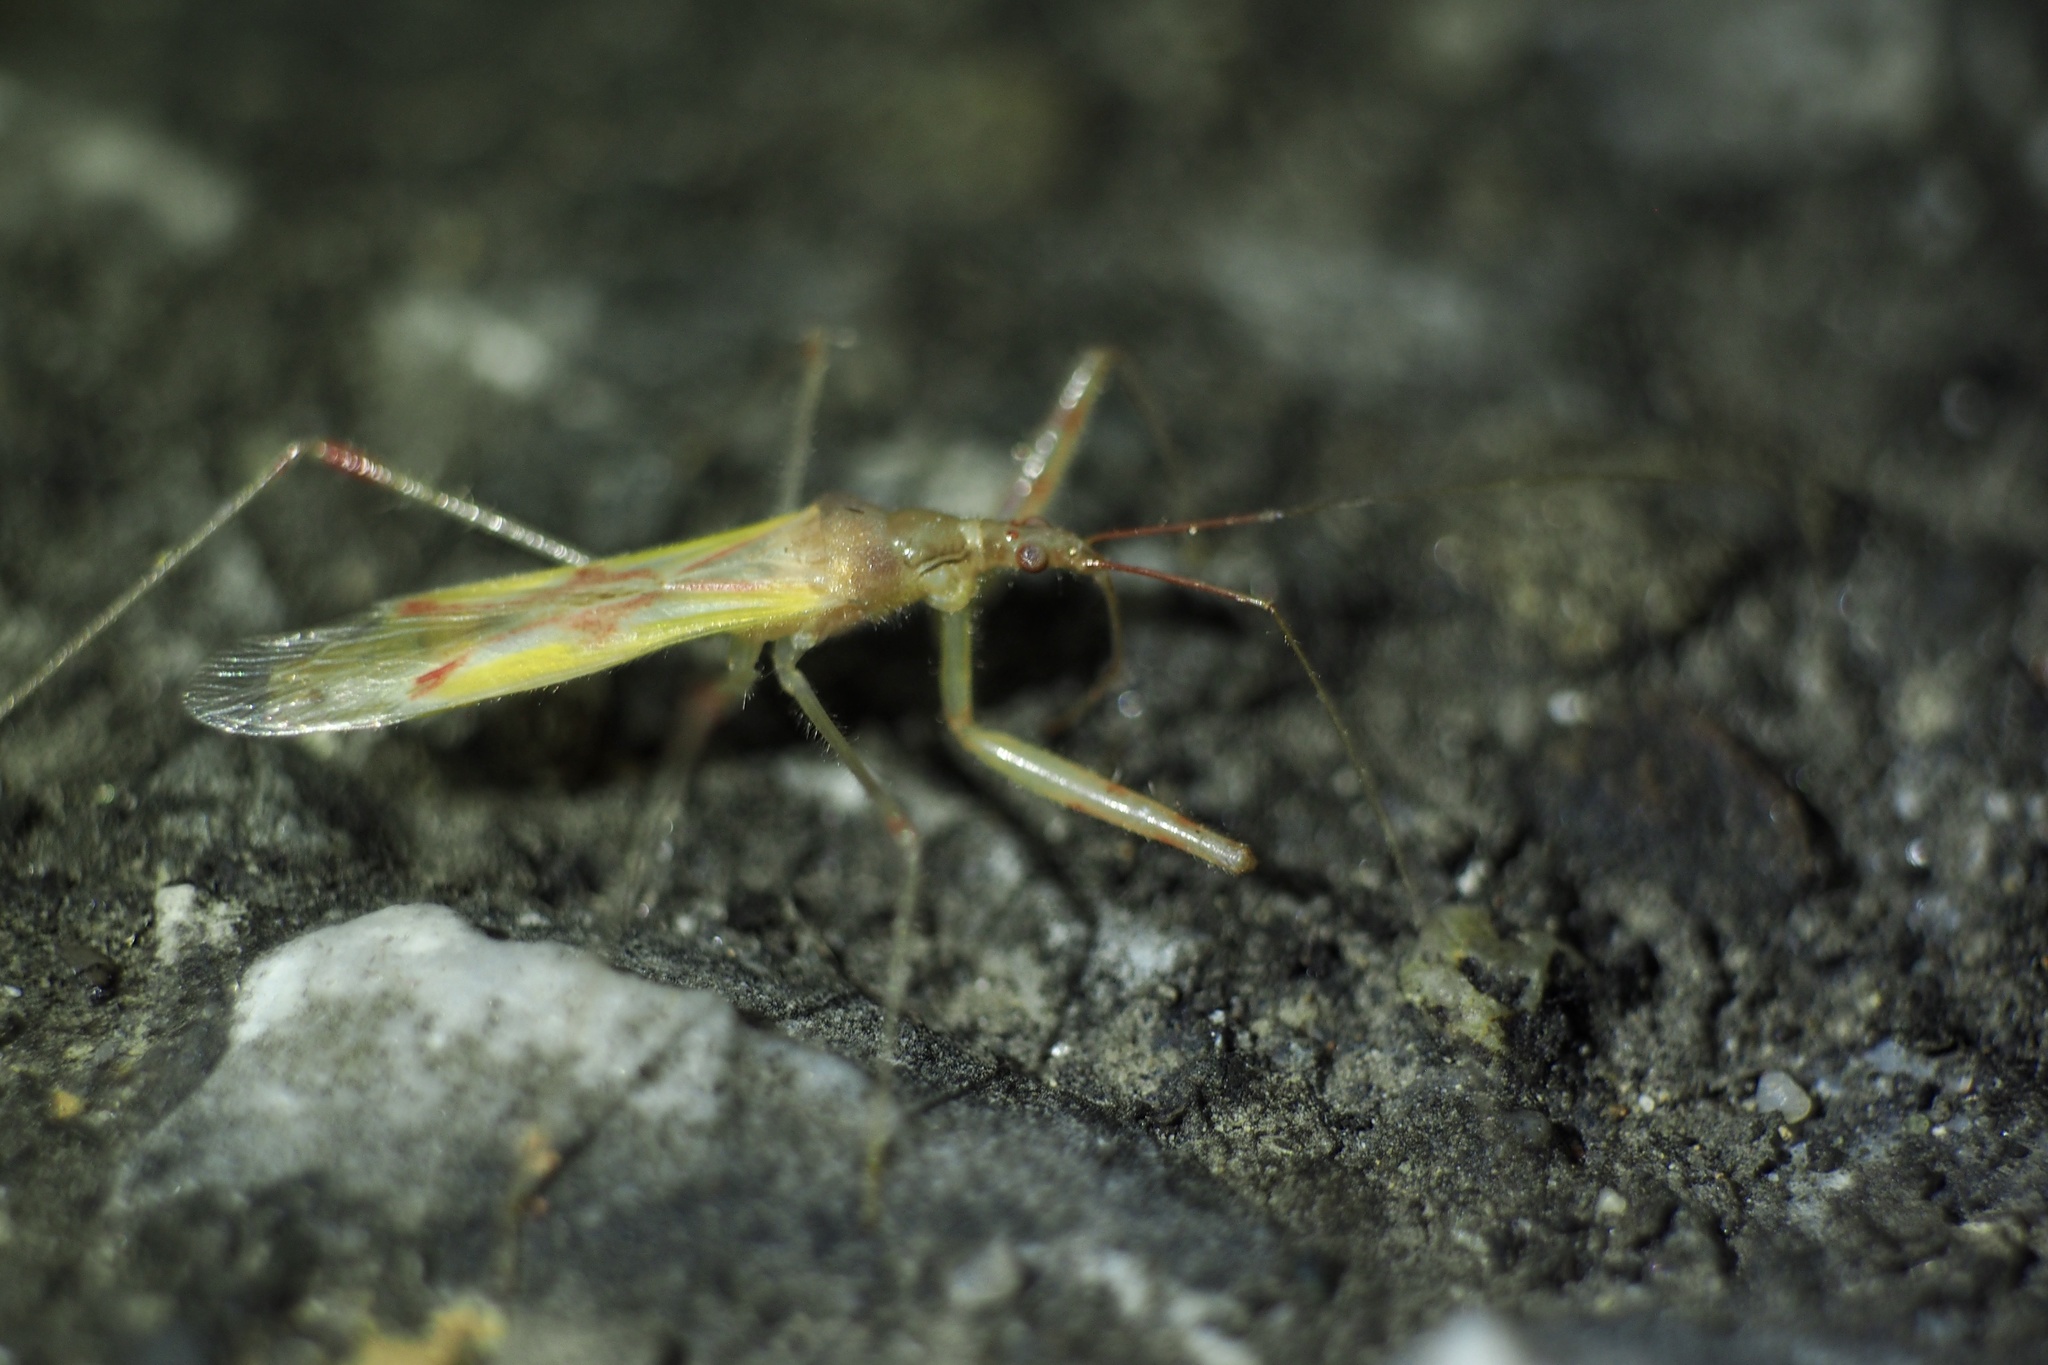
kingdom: Animalia
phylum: Arthropoda
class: Insecta
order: Hemiptera
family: Nabidae
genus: Gorpis
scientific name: Gorpis japonicus
